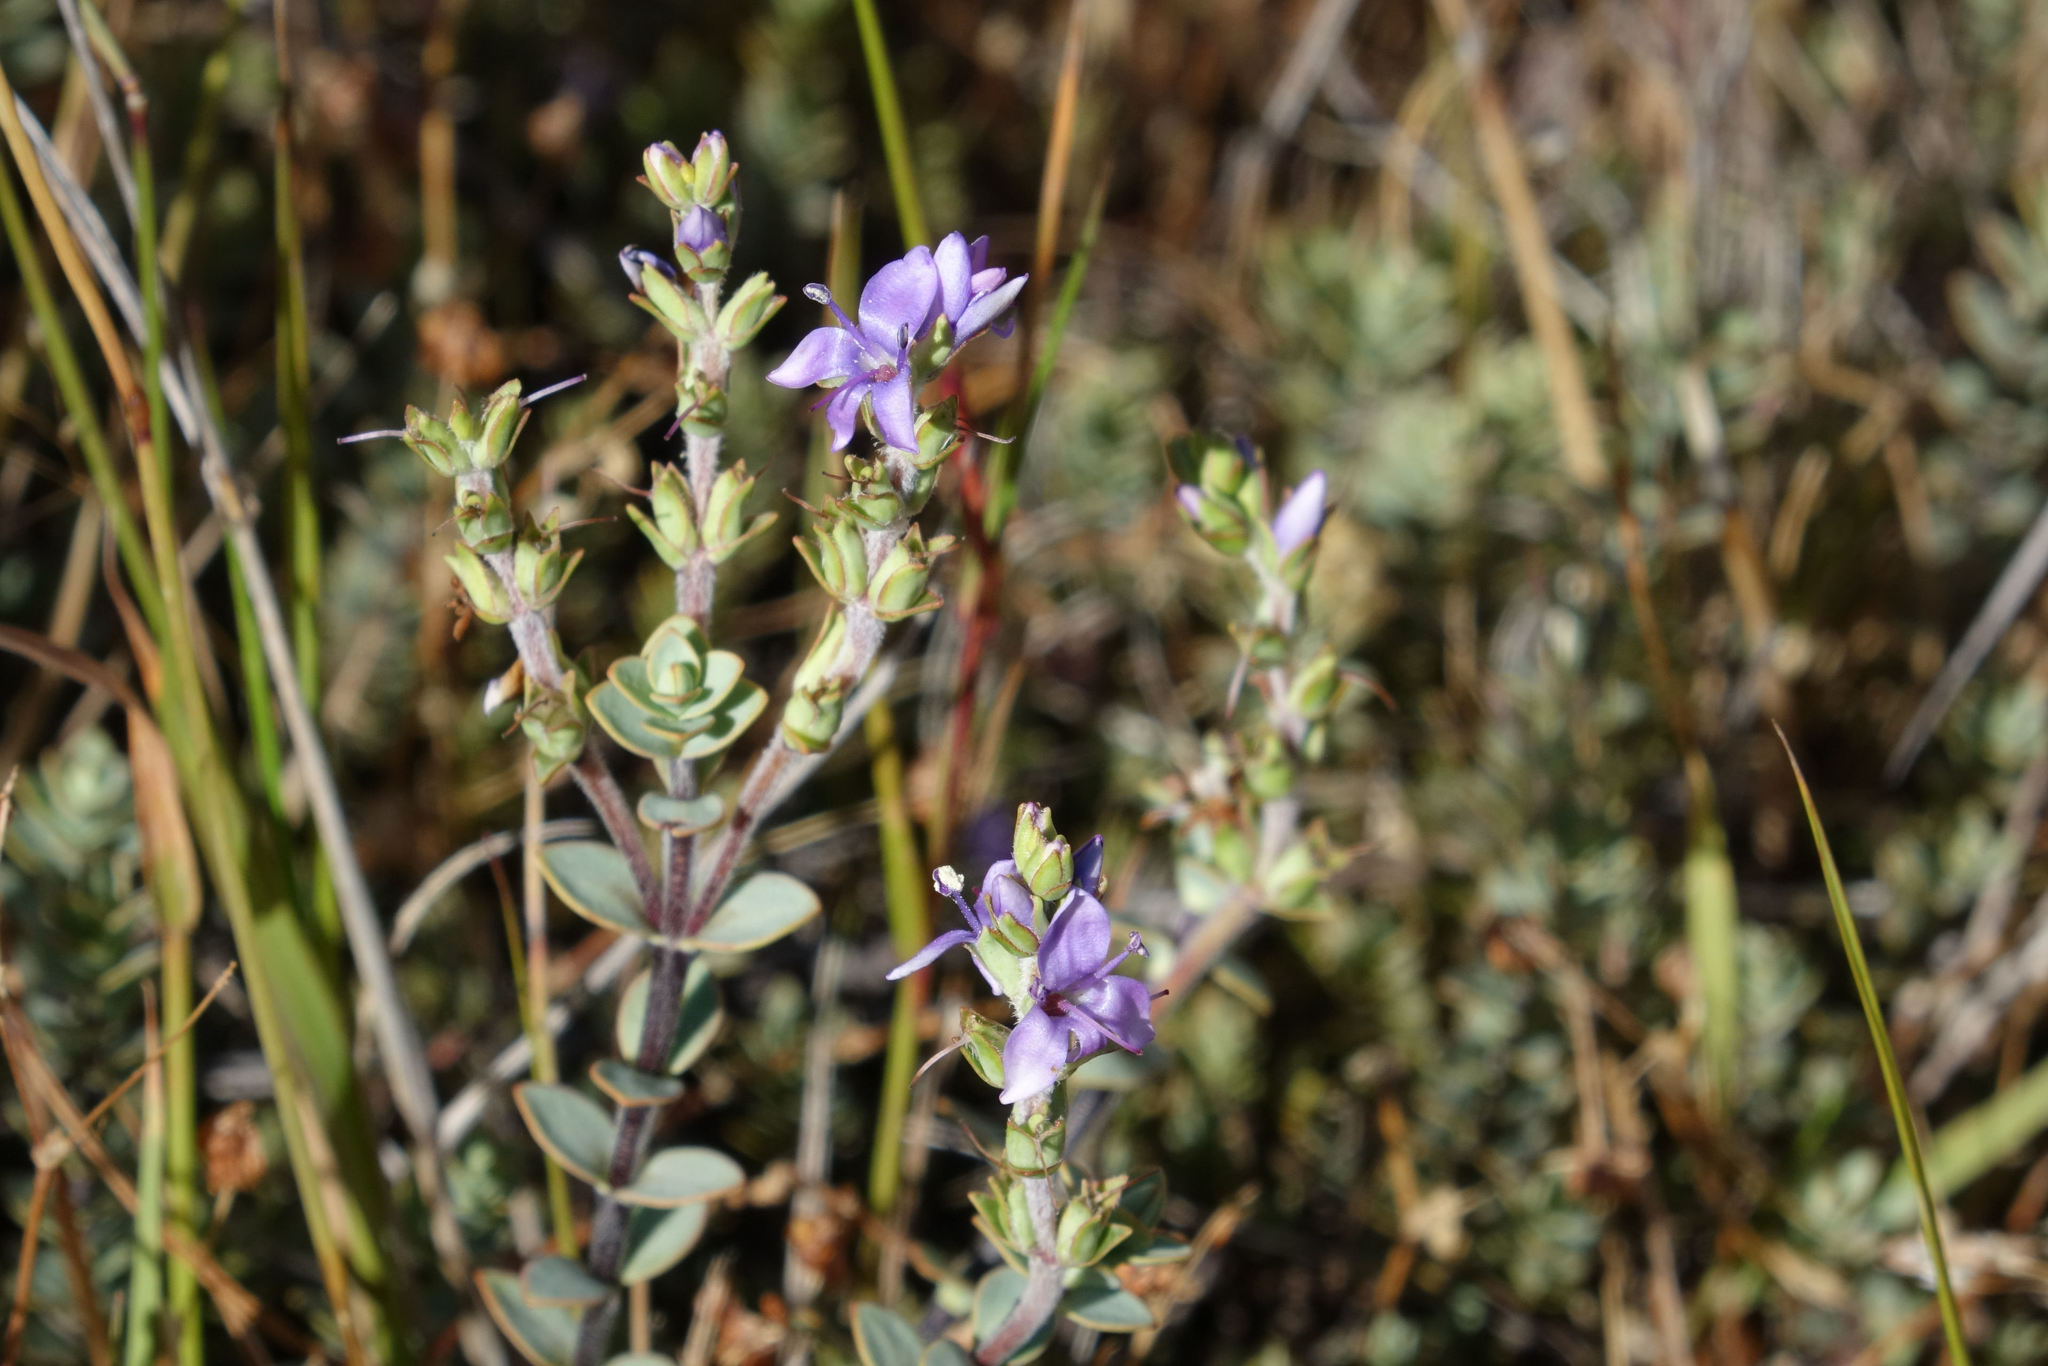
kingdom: Plantae
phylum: Tracheophyta
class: Magnoliopsida
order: Lamiales
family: Plantaginaceae
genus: Veronica
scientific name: Veronica pimeleoides
